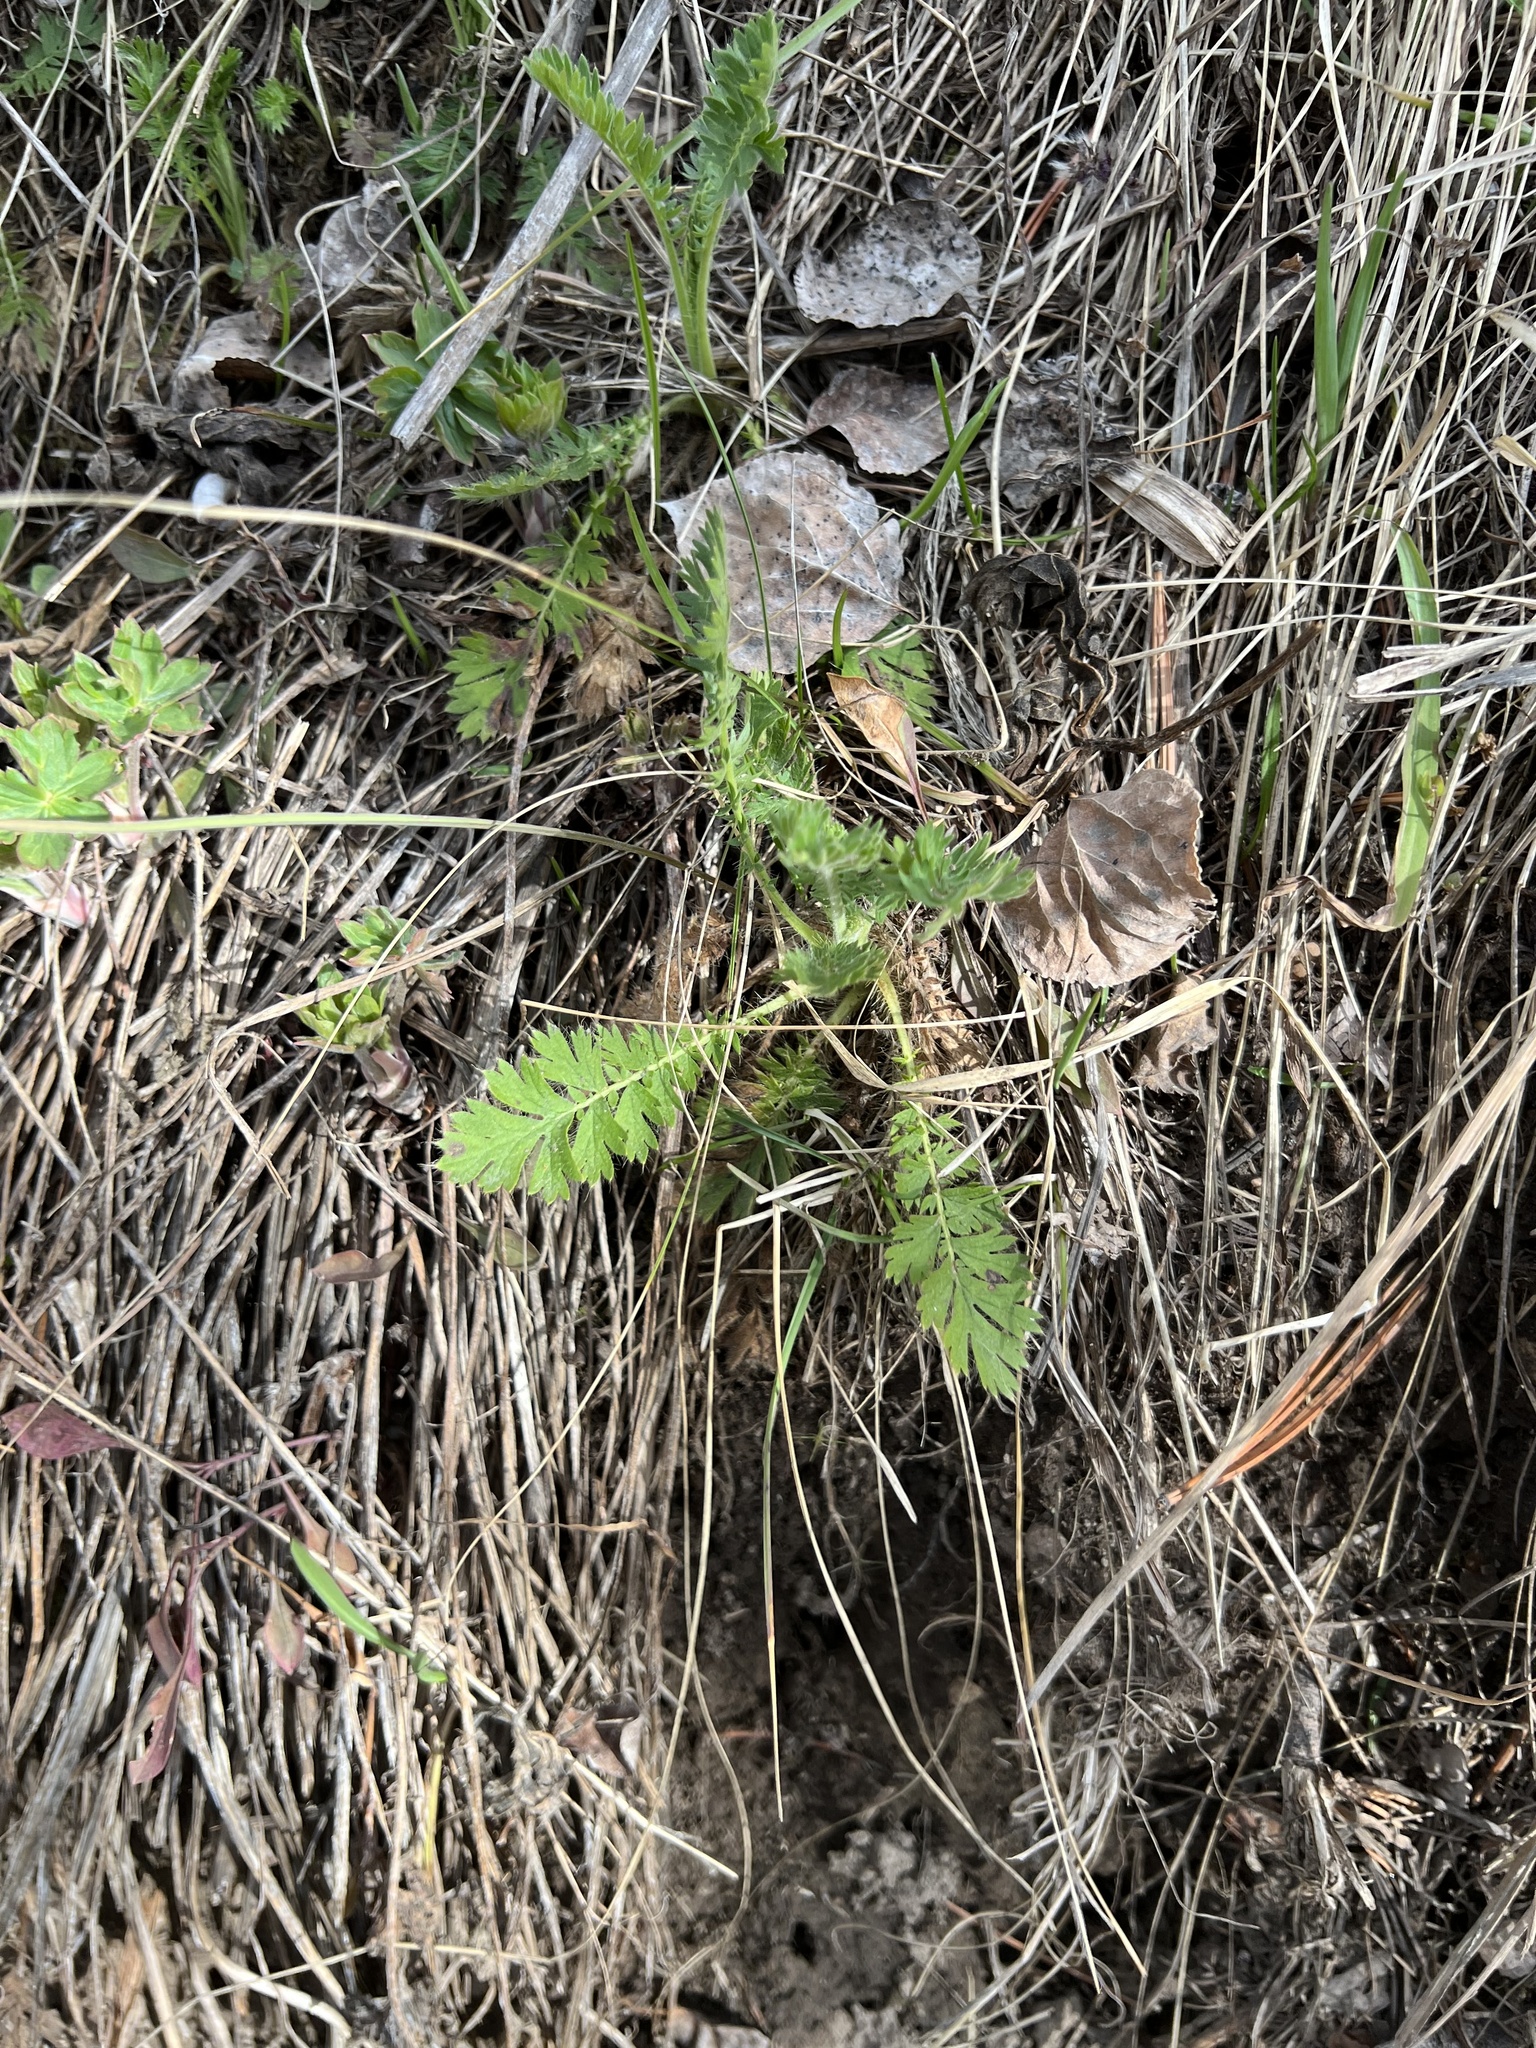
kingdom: Plantae
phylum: Tracheophyta
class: Magnoliopsida
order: Rosales
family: Rosaceae
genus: Geum
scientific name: Geum triflorum
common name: Old man's whiskers
